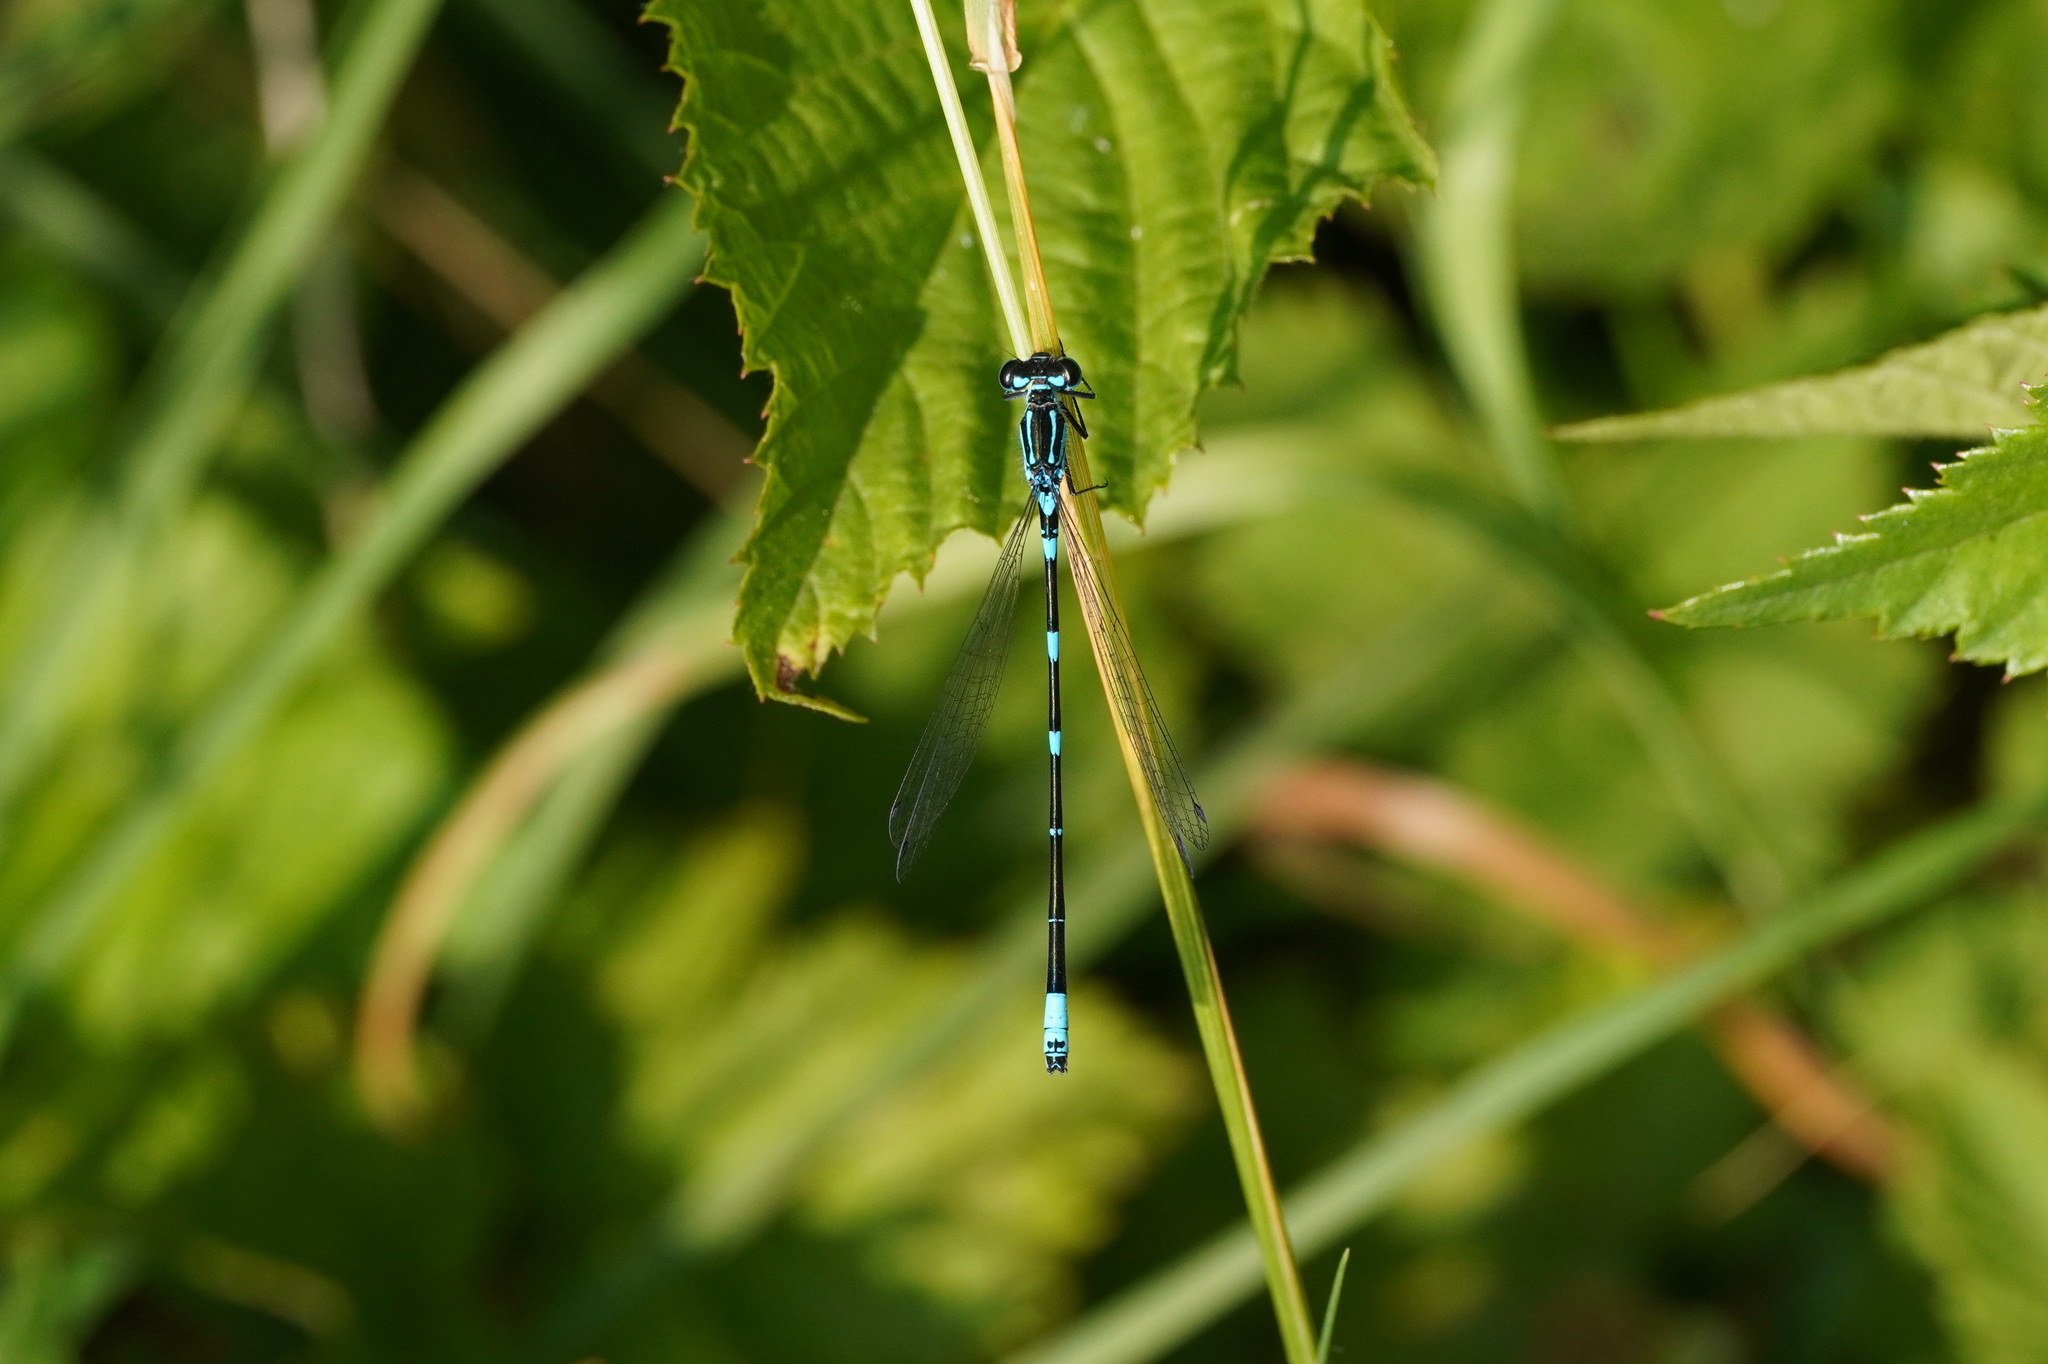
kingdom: Animalia
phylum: Arthropoda
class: Insecta
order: Odonata
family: Coenagrionidae
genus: Coenagrion
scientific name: Coenagrion pulchellum
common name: Variable bluet
